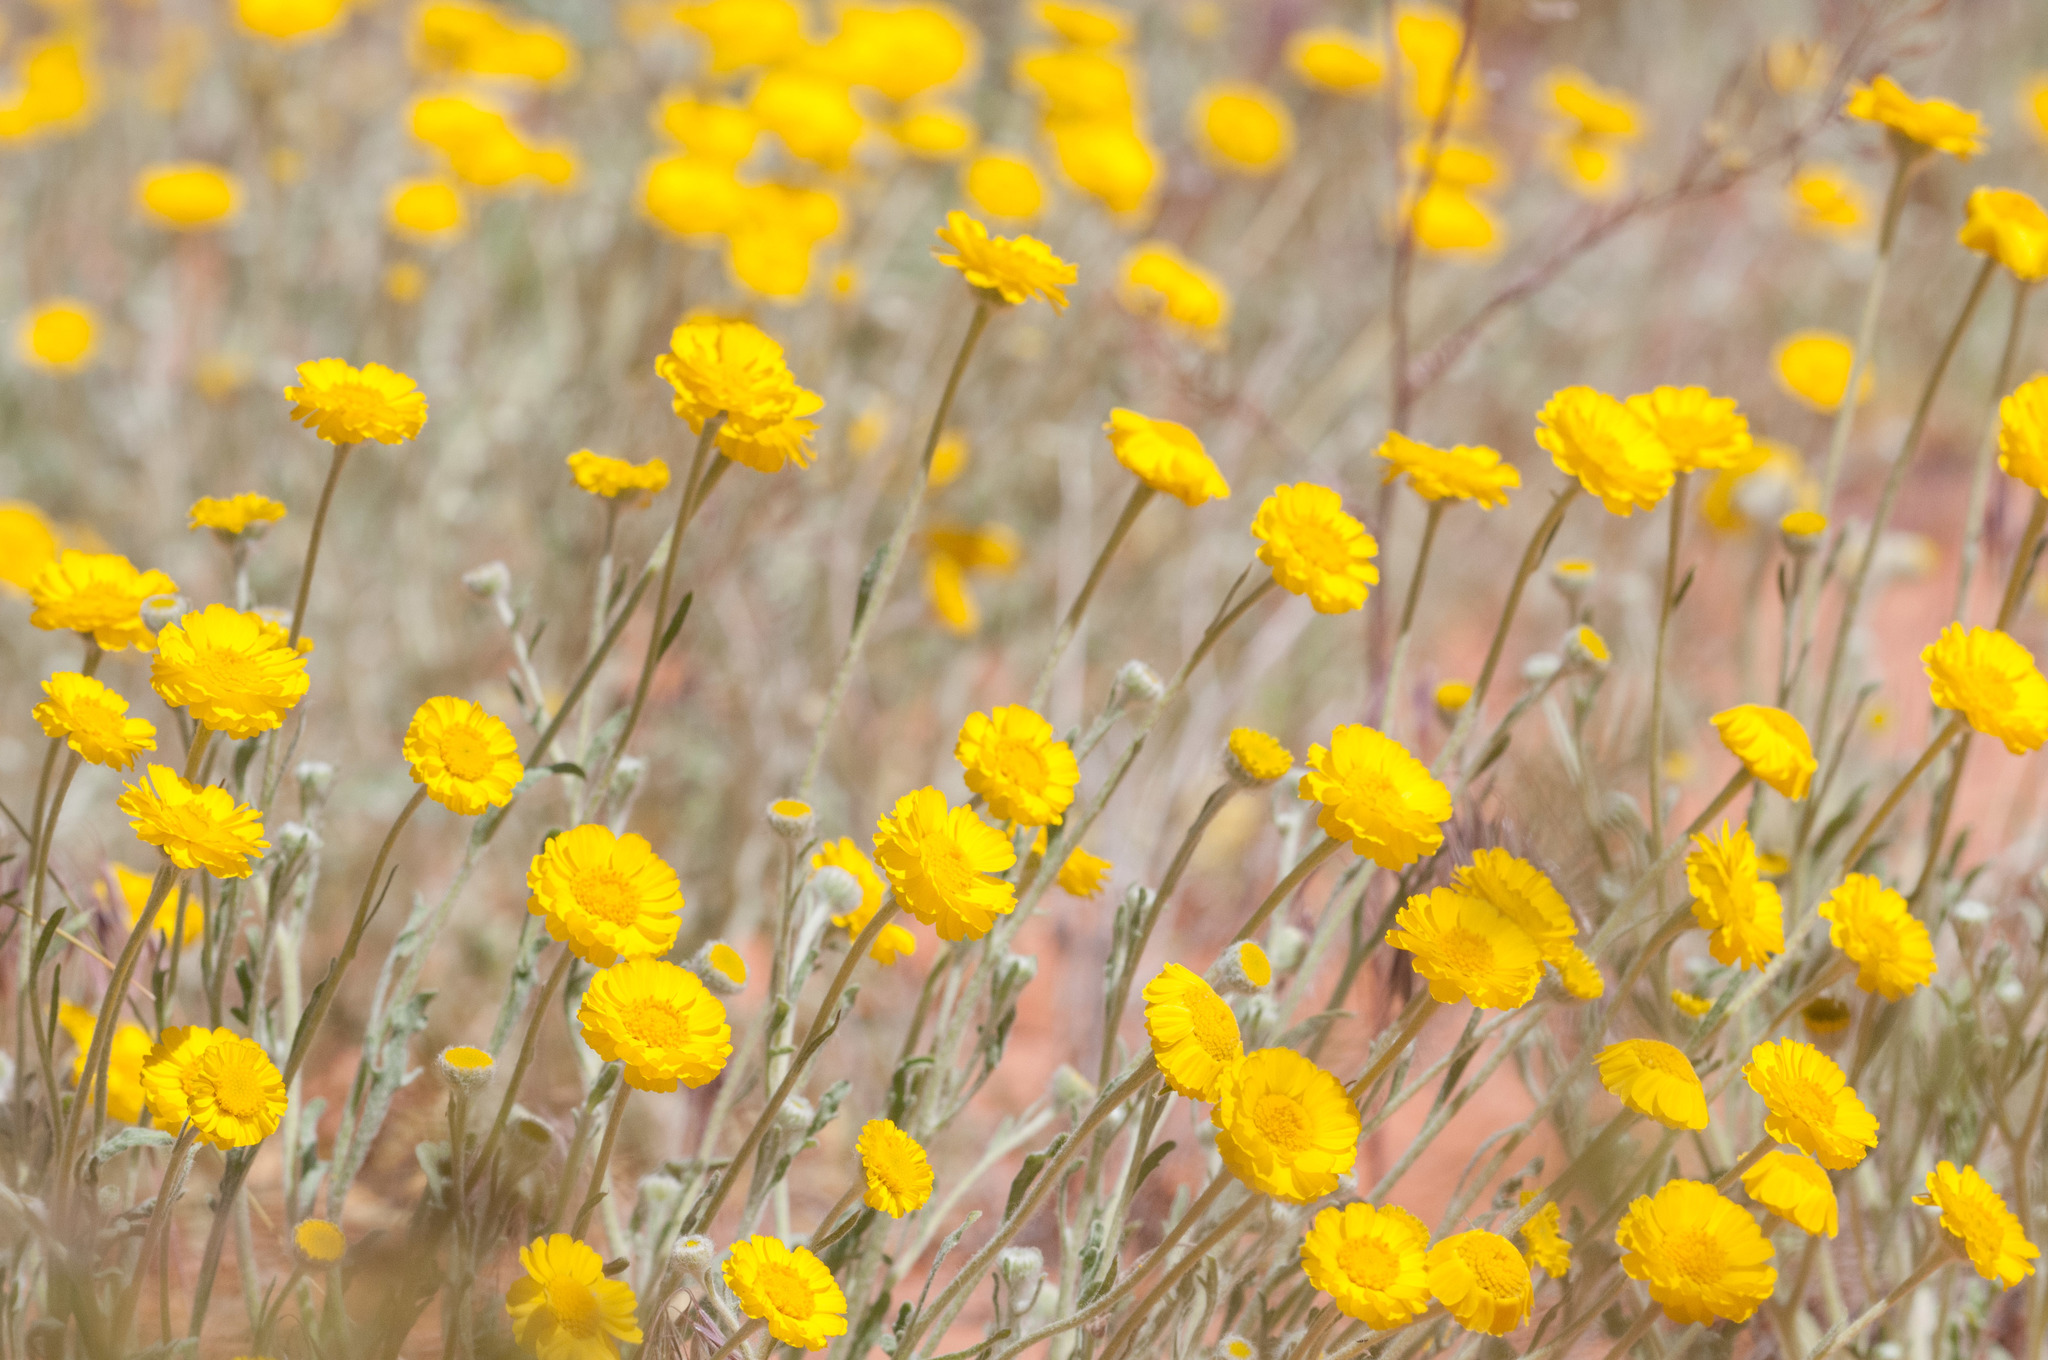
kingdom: Plantae
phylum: Tracheophyta
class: Magnoliopsida
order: Asterales
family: Asteraceae
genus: Baileya
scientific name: Baileya pleniradiata
